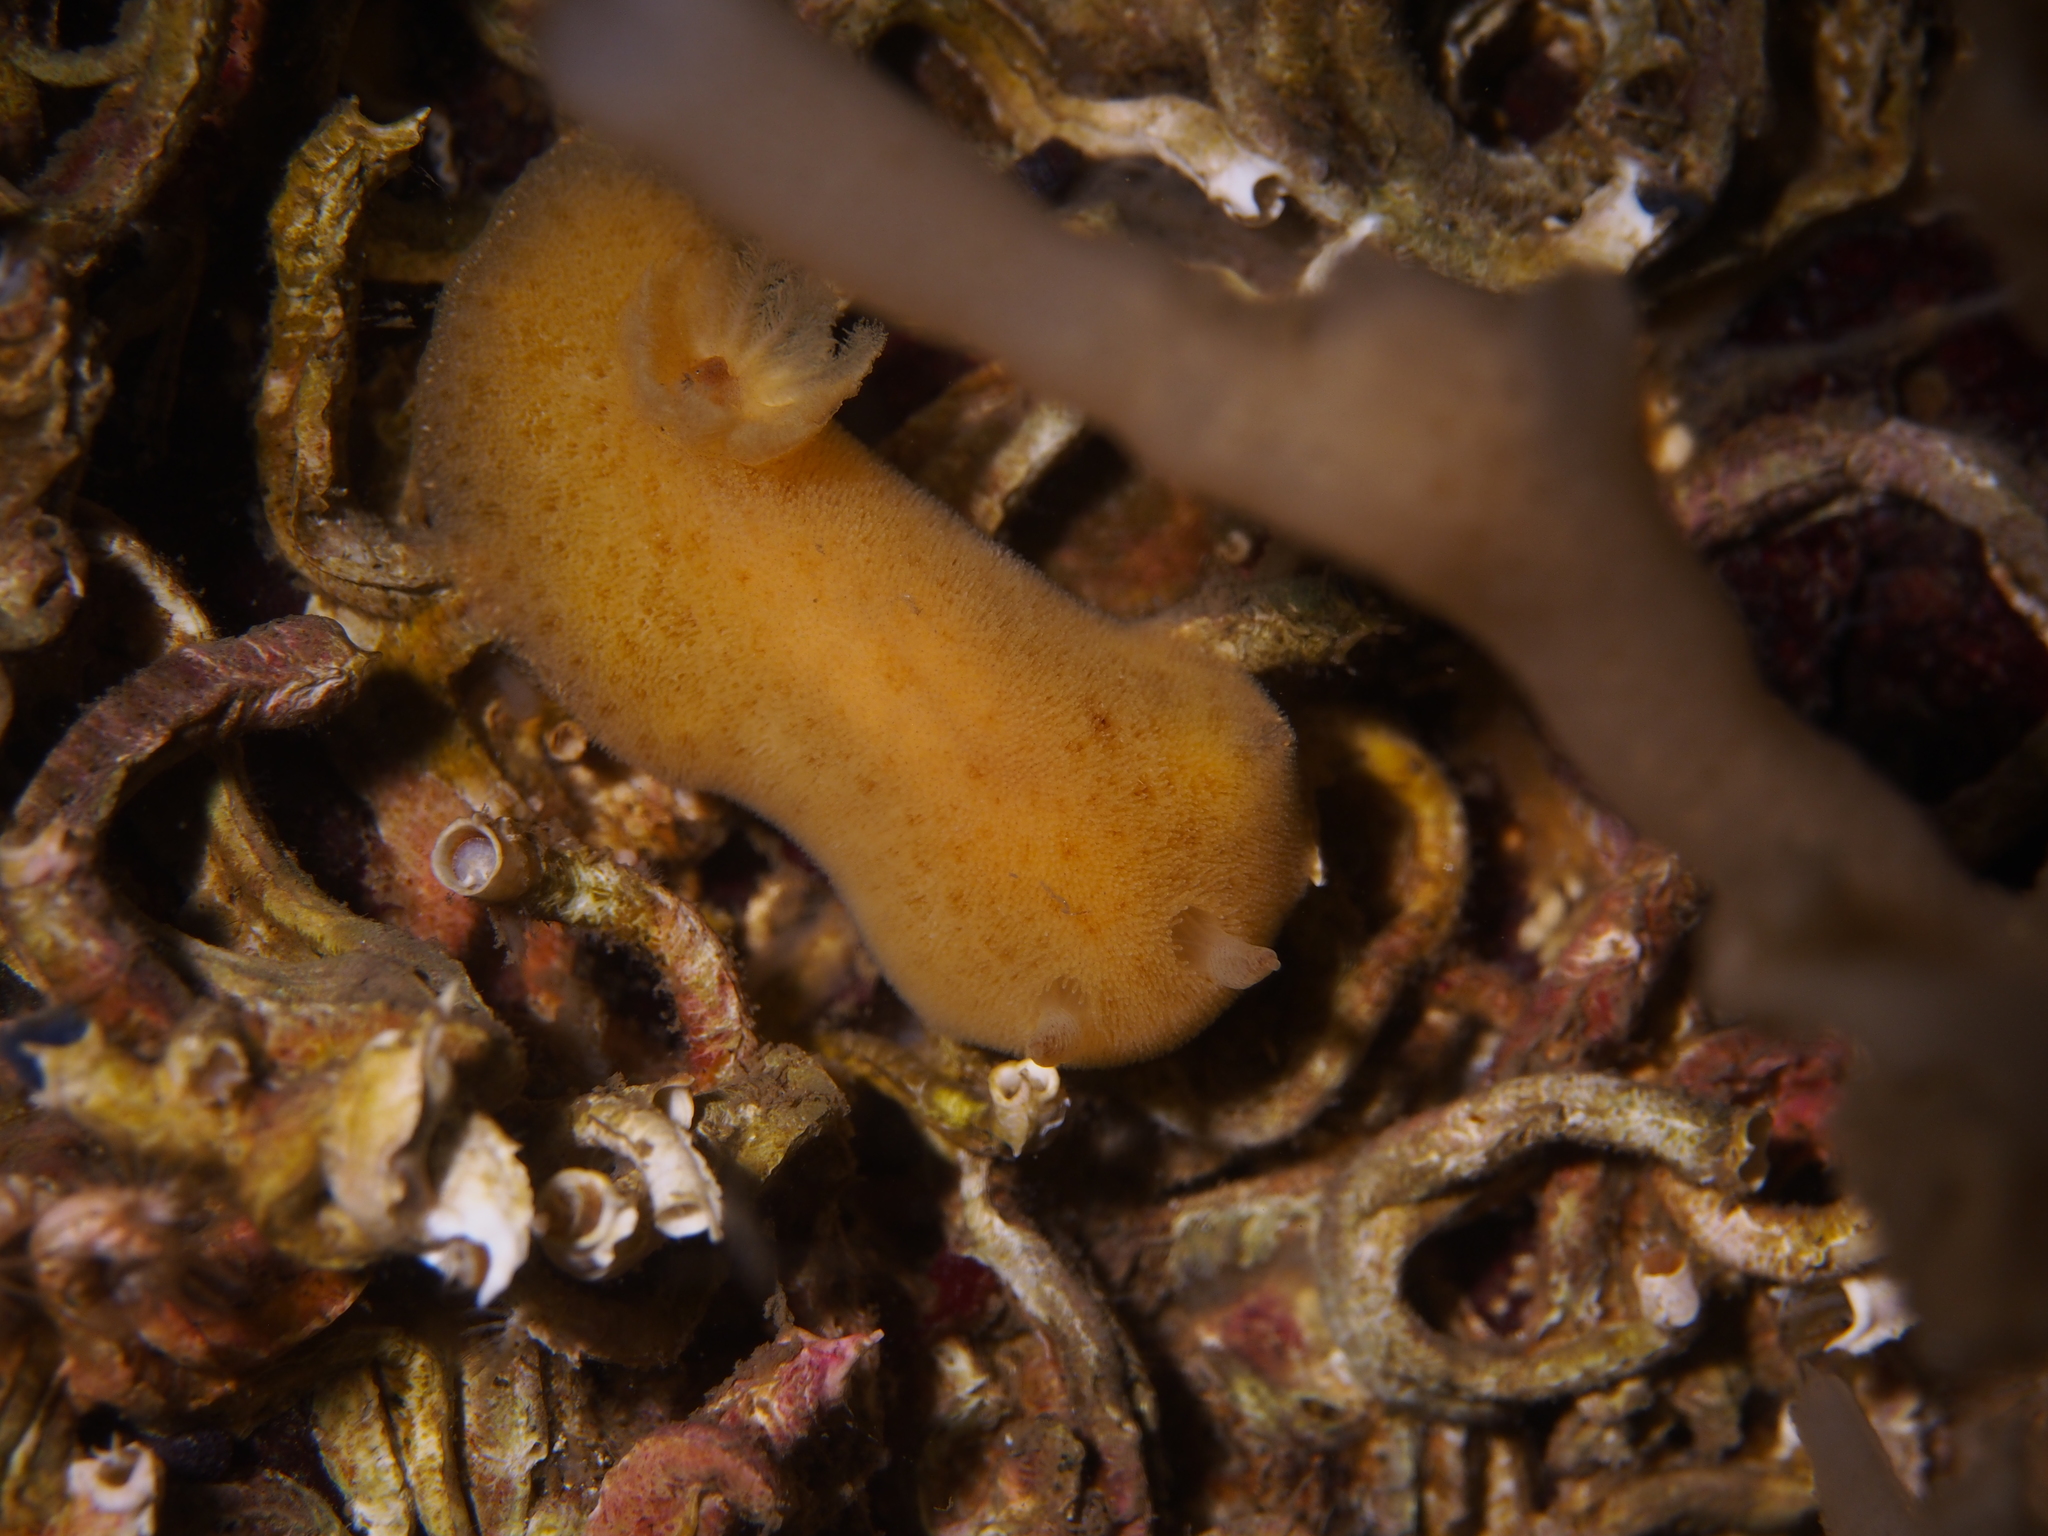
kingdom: Animalia
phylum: Mollusca
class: Gastropoda
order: Nudibranchia
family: Discodorididae
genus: Jorunna
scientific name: Jorunna tomentosa
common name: Grey sea slug
